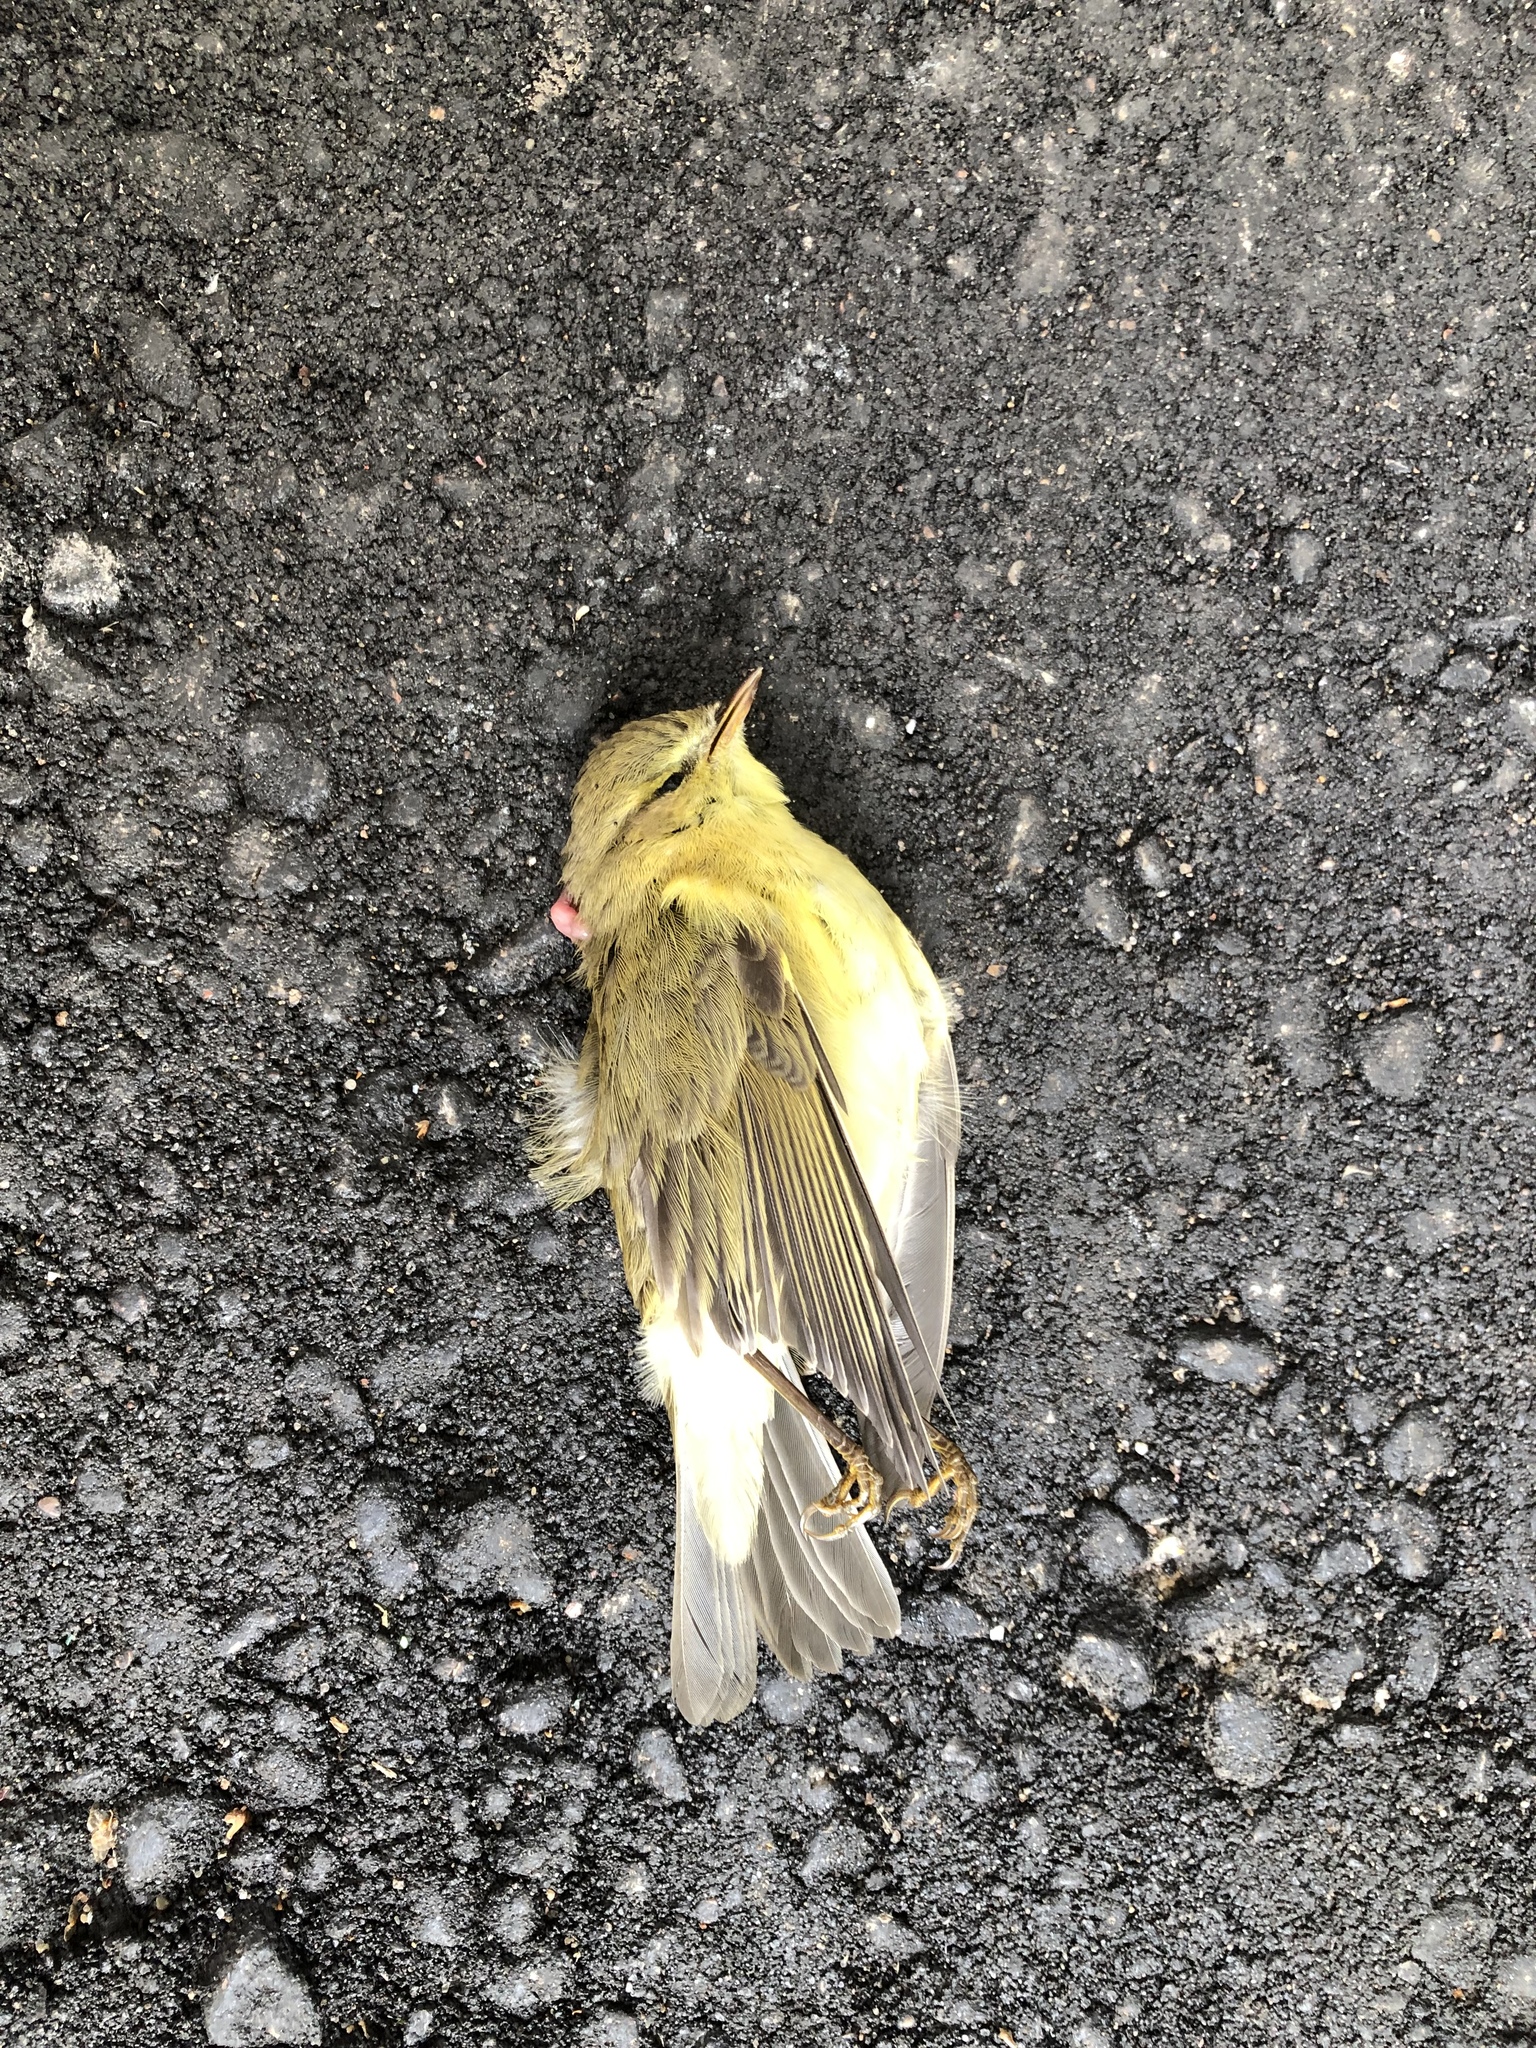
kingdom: Animalia
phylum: Chordata
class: Aves
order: Passeriformes
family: Phylloscopidae
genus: Phylloscopus
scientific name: Phylloscopus sibillatrix
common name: Wood warbler
